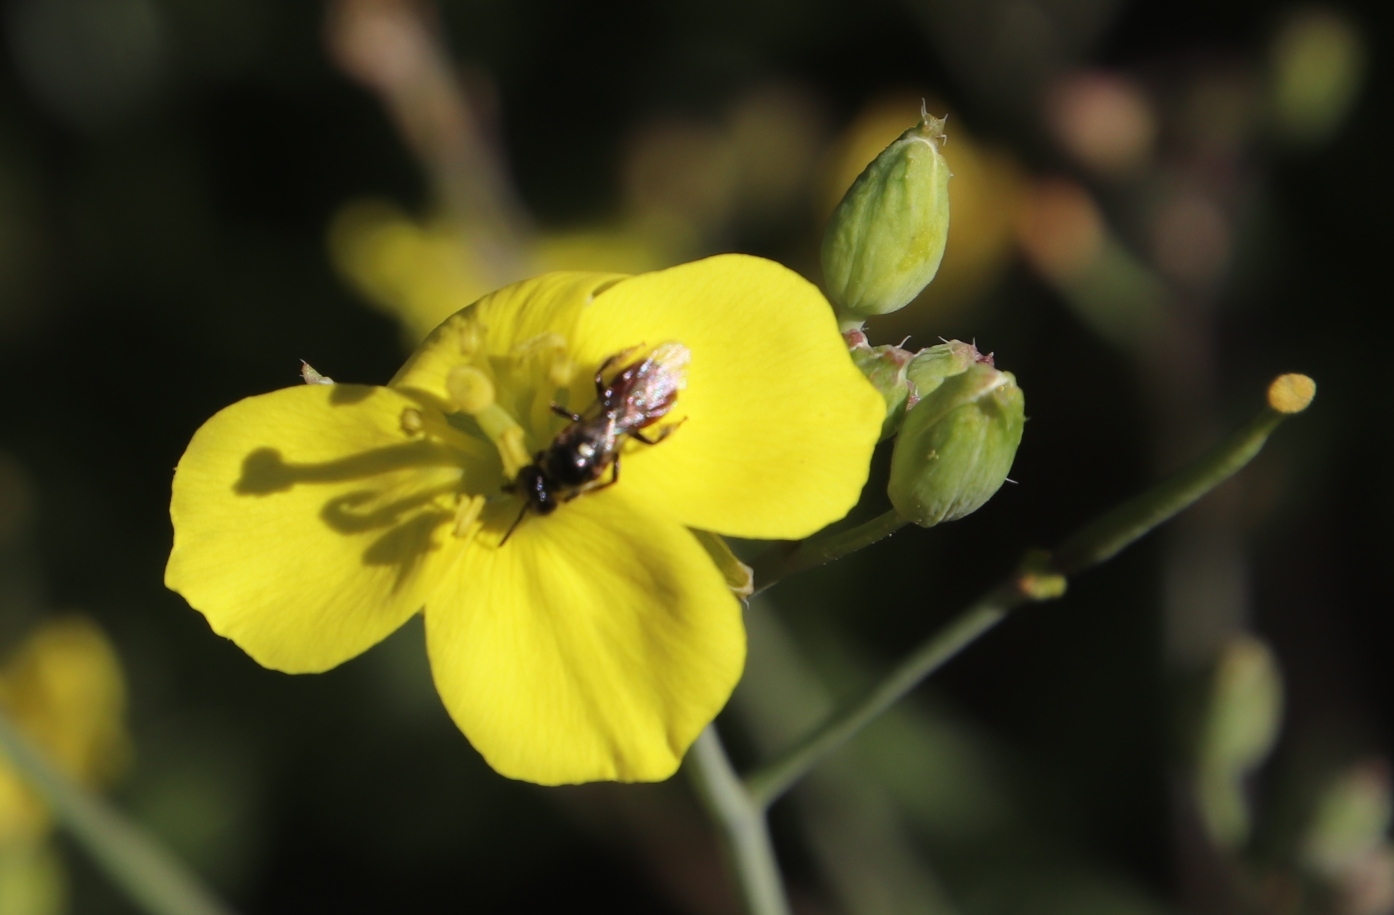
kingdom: Plantae
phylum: Tracheophyta
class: Magnoliopsida
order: Brassicales
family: Brassicaceae
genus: Diplotaxis
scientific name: Diplotaxis tenuifolia
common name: Perennial wall-rocket
